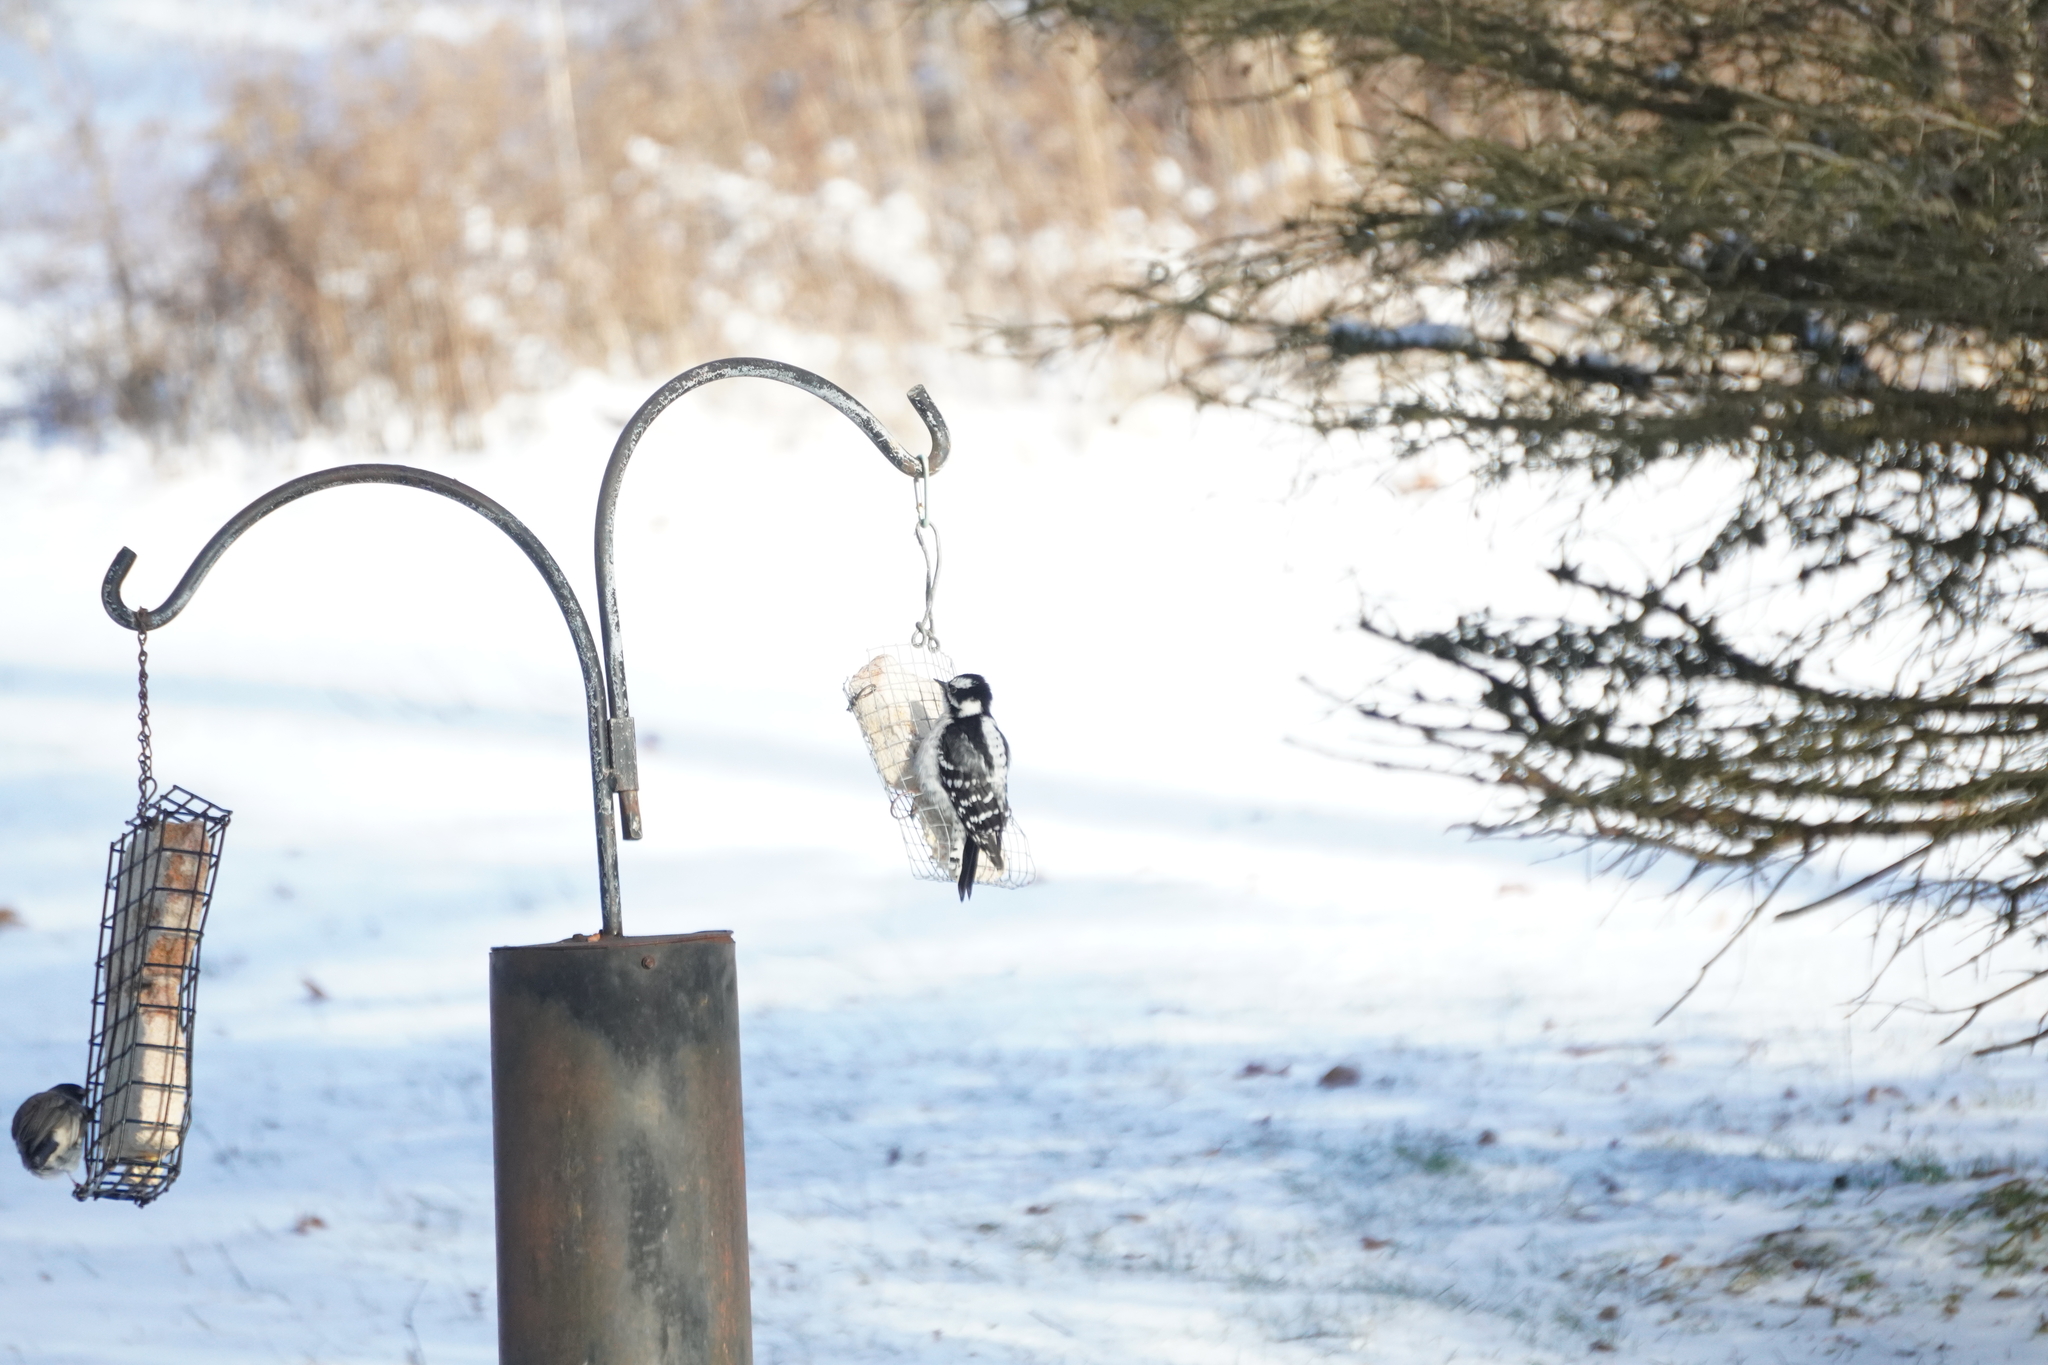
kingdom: Animalia
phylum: Chordata
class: Aves
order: Piciformes
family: Picidae
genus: Dryobates
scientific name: Dryobates pubescens
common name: Downy woodpecker
